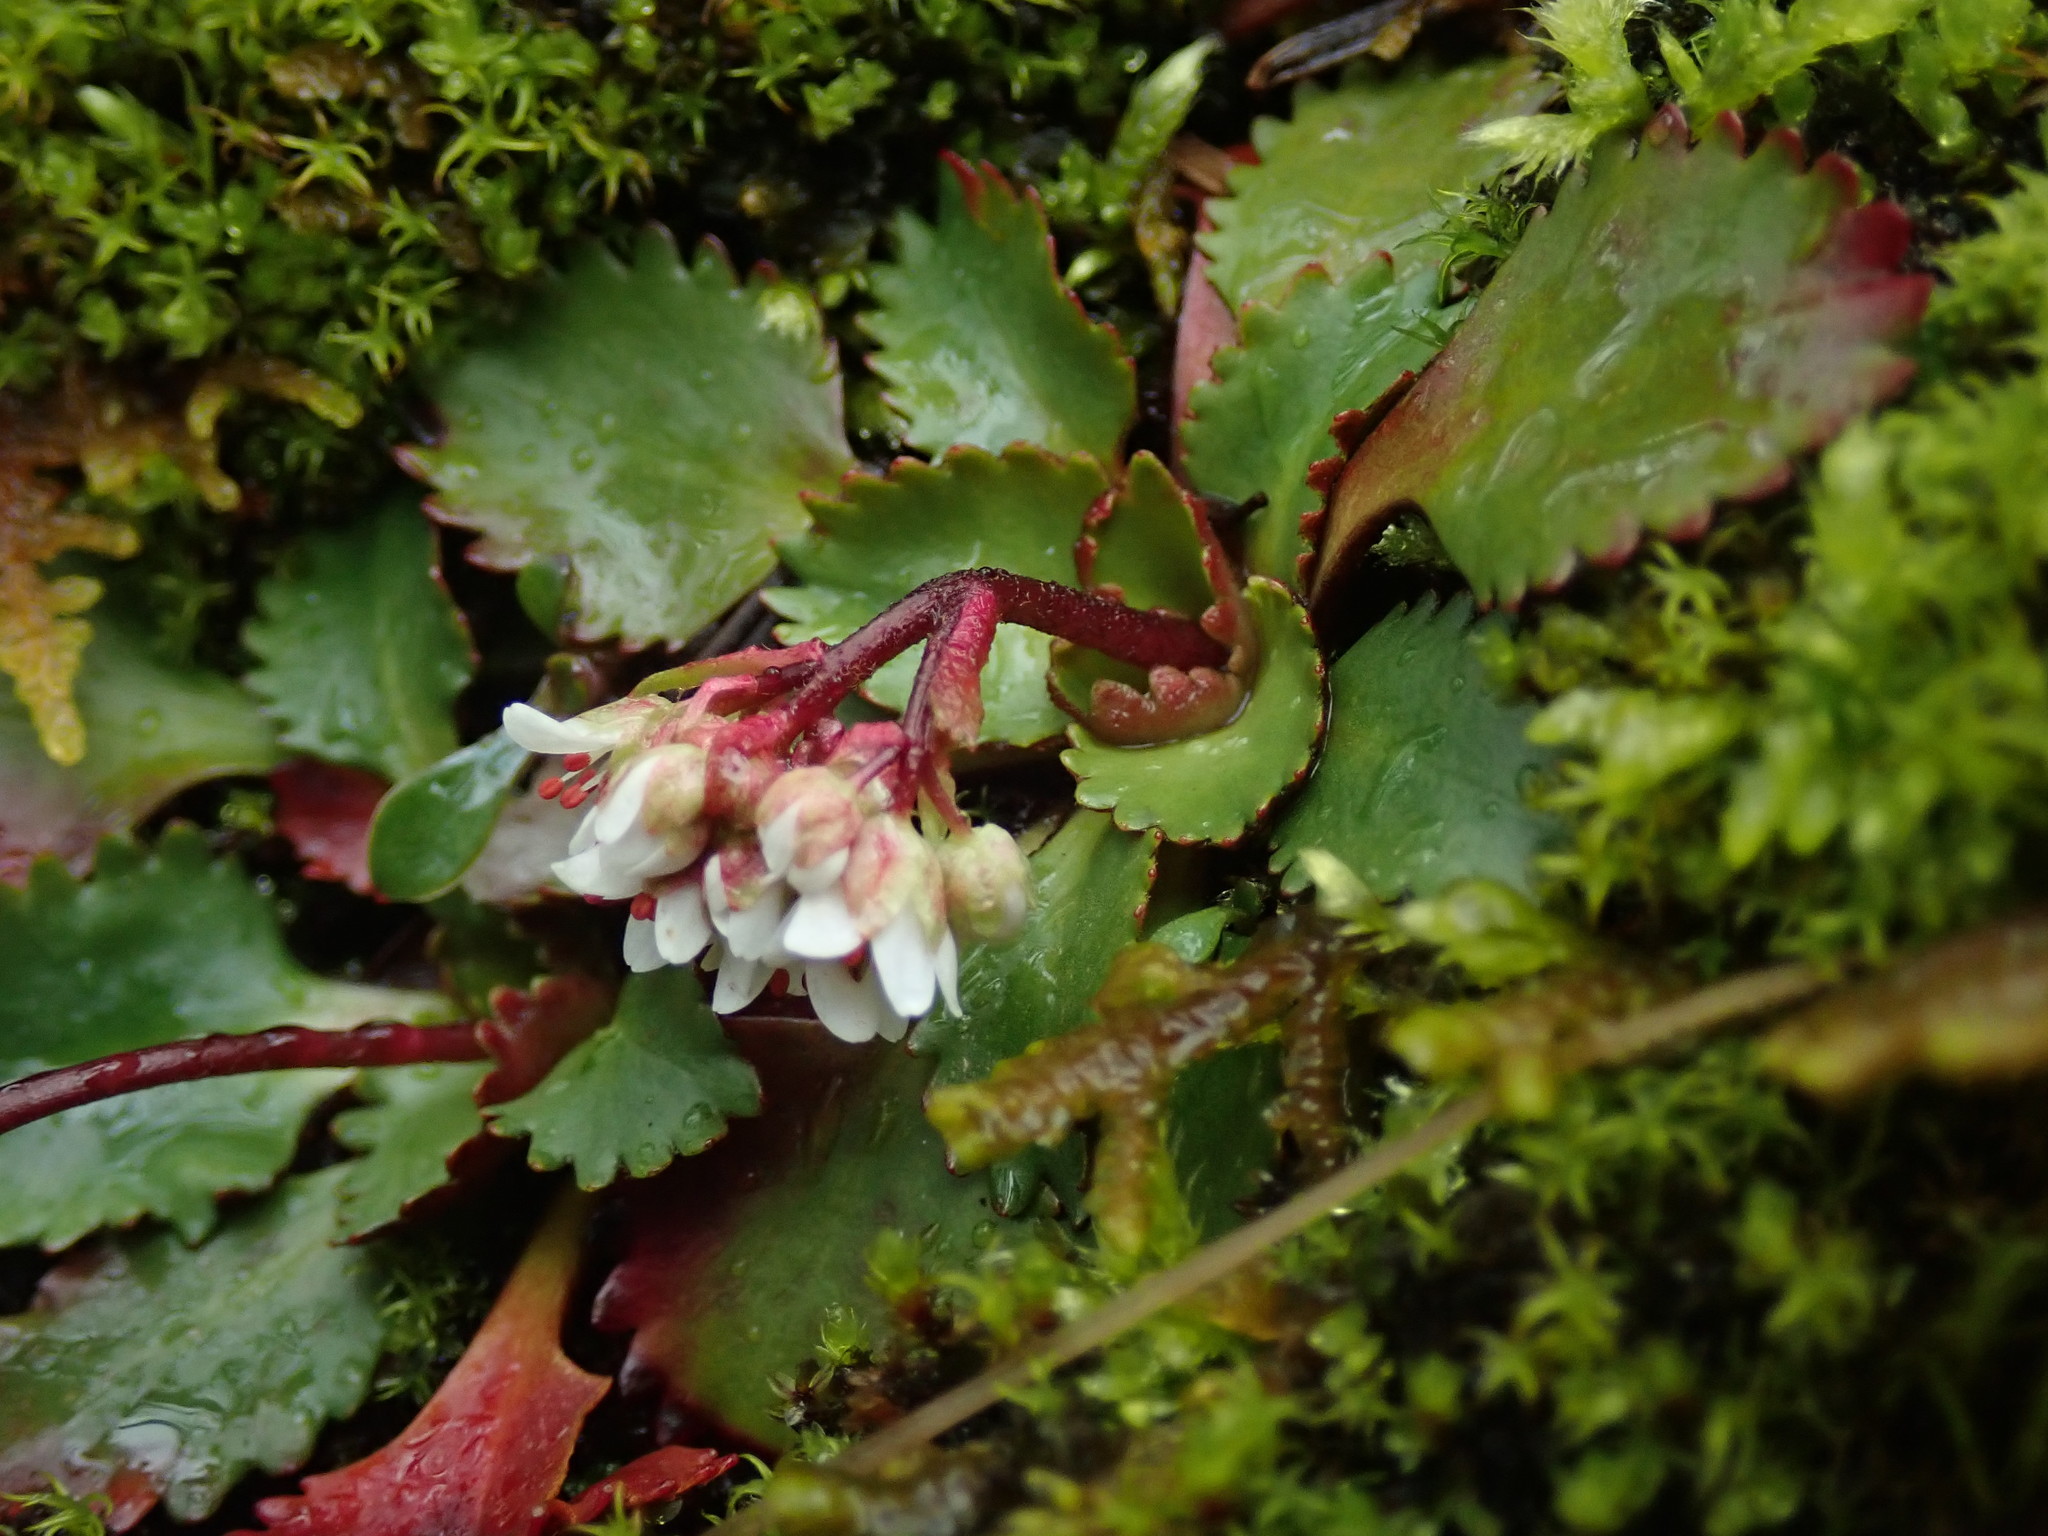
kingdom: Plantae
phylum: Tracheophyta
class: Magnoliopsida
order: Saxifragales
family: Saxifragaceae
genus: Micranthes
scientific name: Micranthes rufidula
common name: Rustyhair saxifrage
